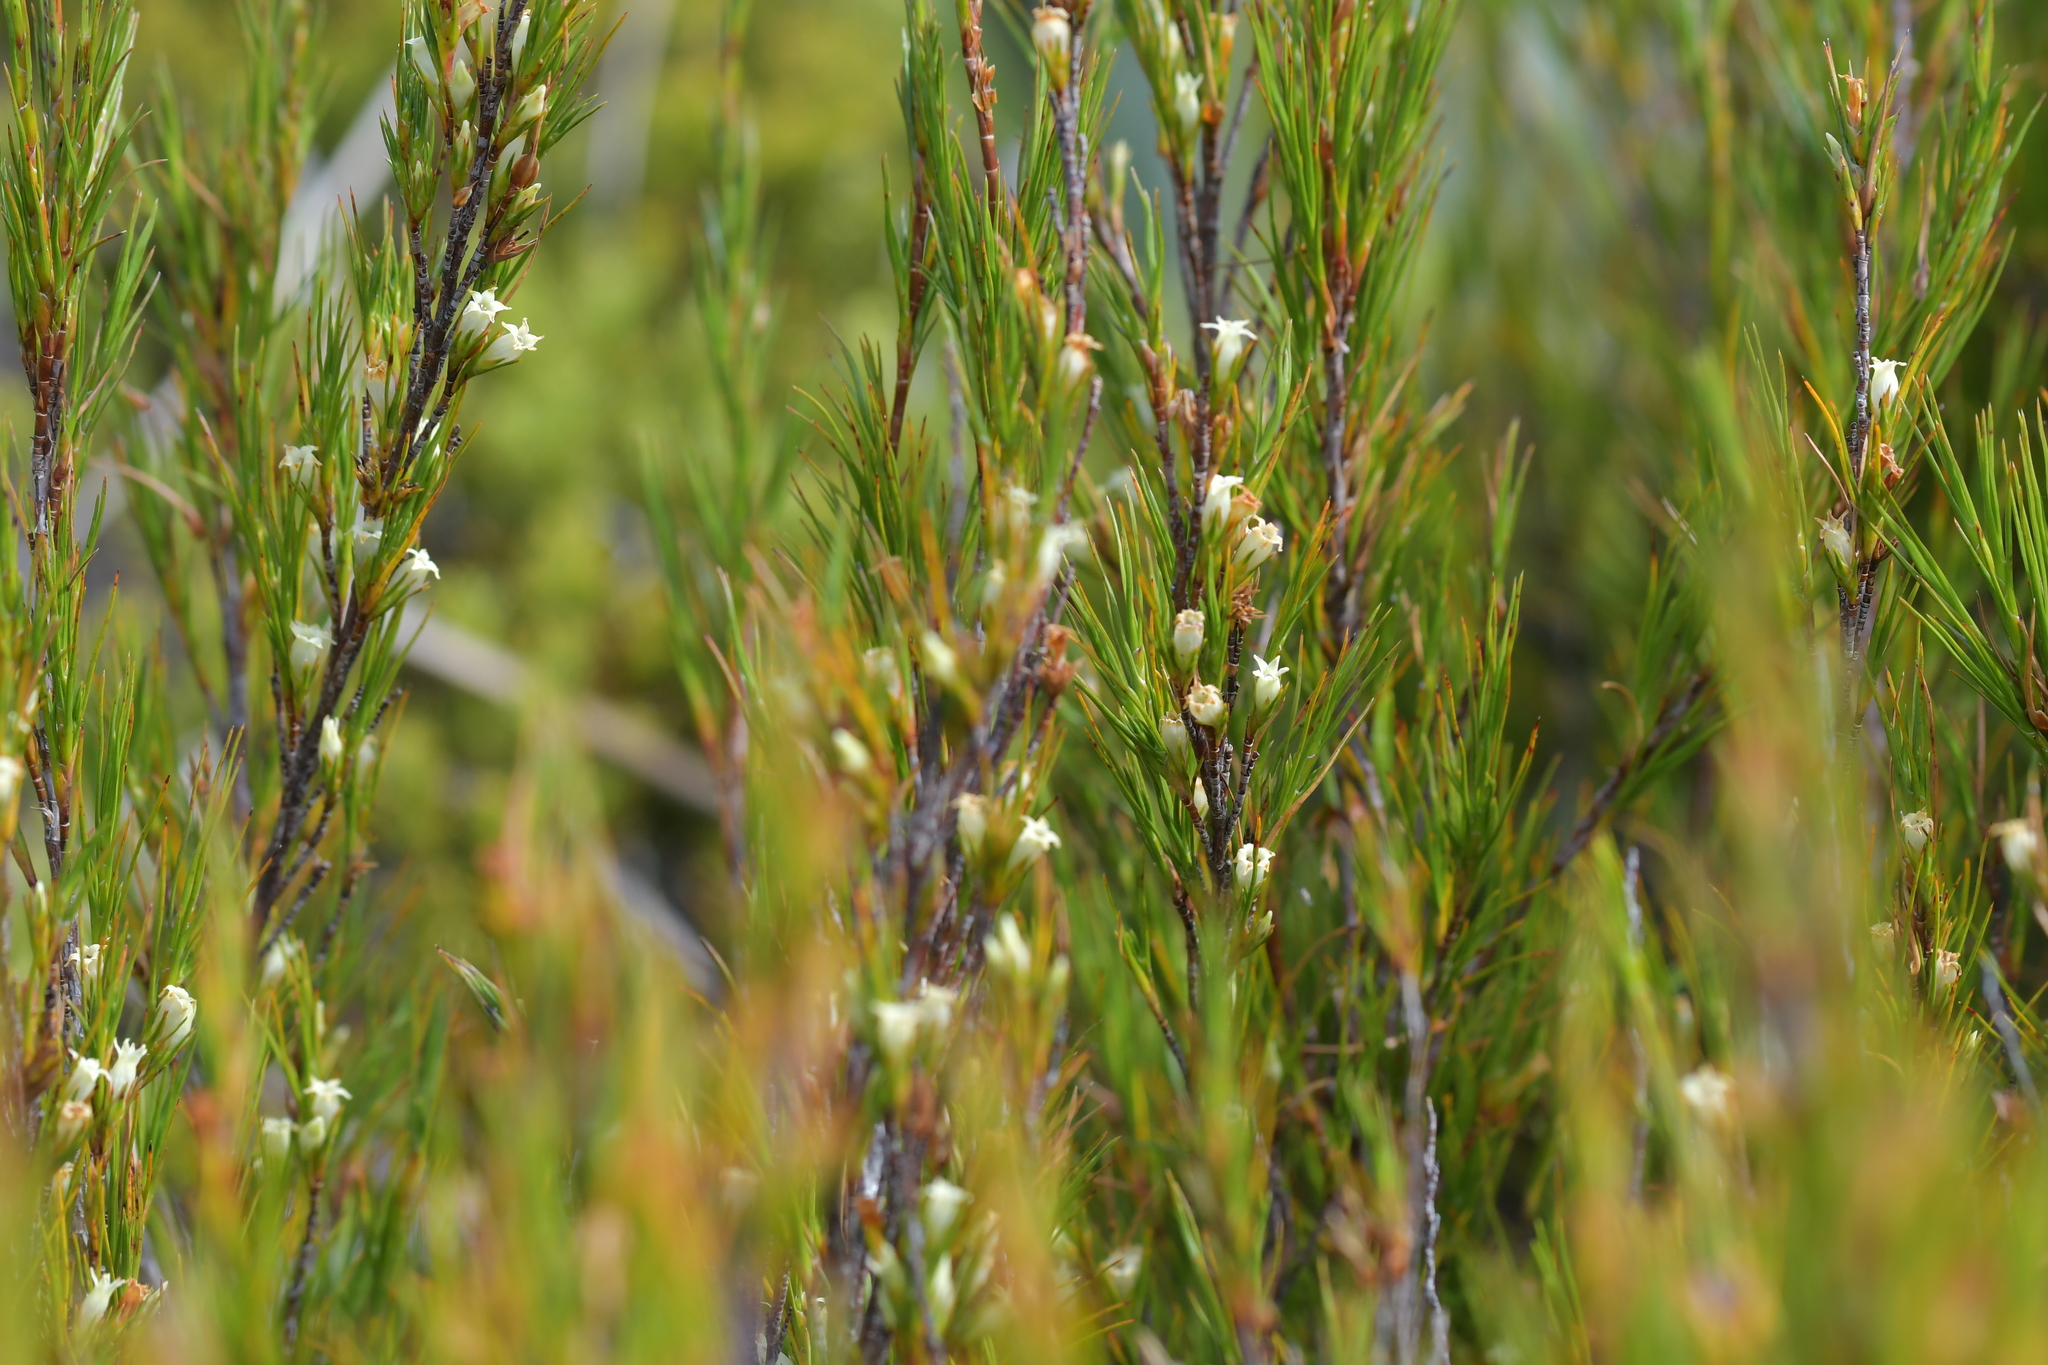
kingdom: Plantae
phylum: Tracheophyta
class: Magnoliopsida
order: Ericales
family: Ericaceae
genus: Dracophyllum
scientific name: Dracophyllum rosmarinifolium
